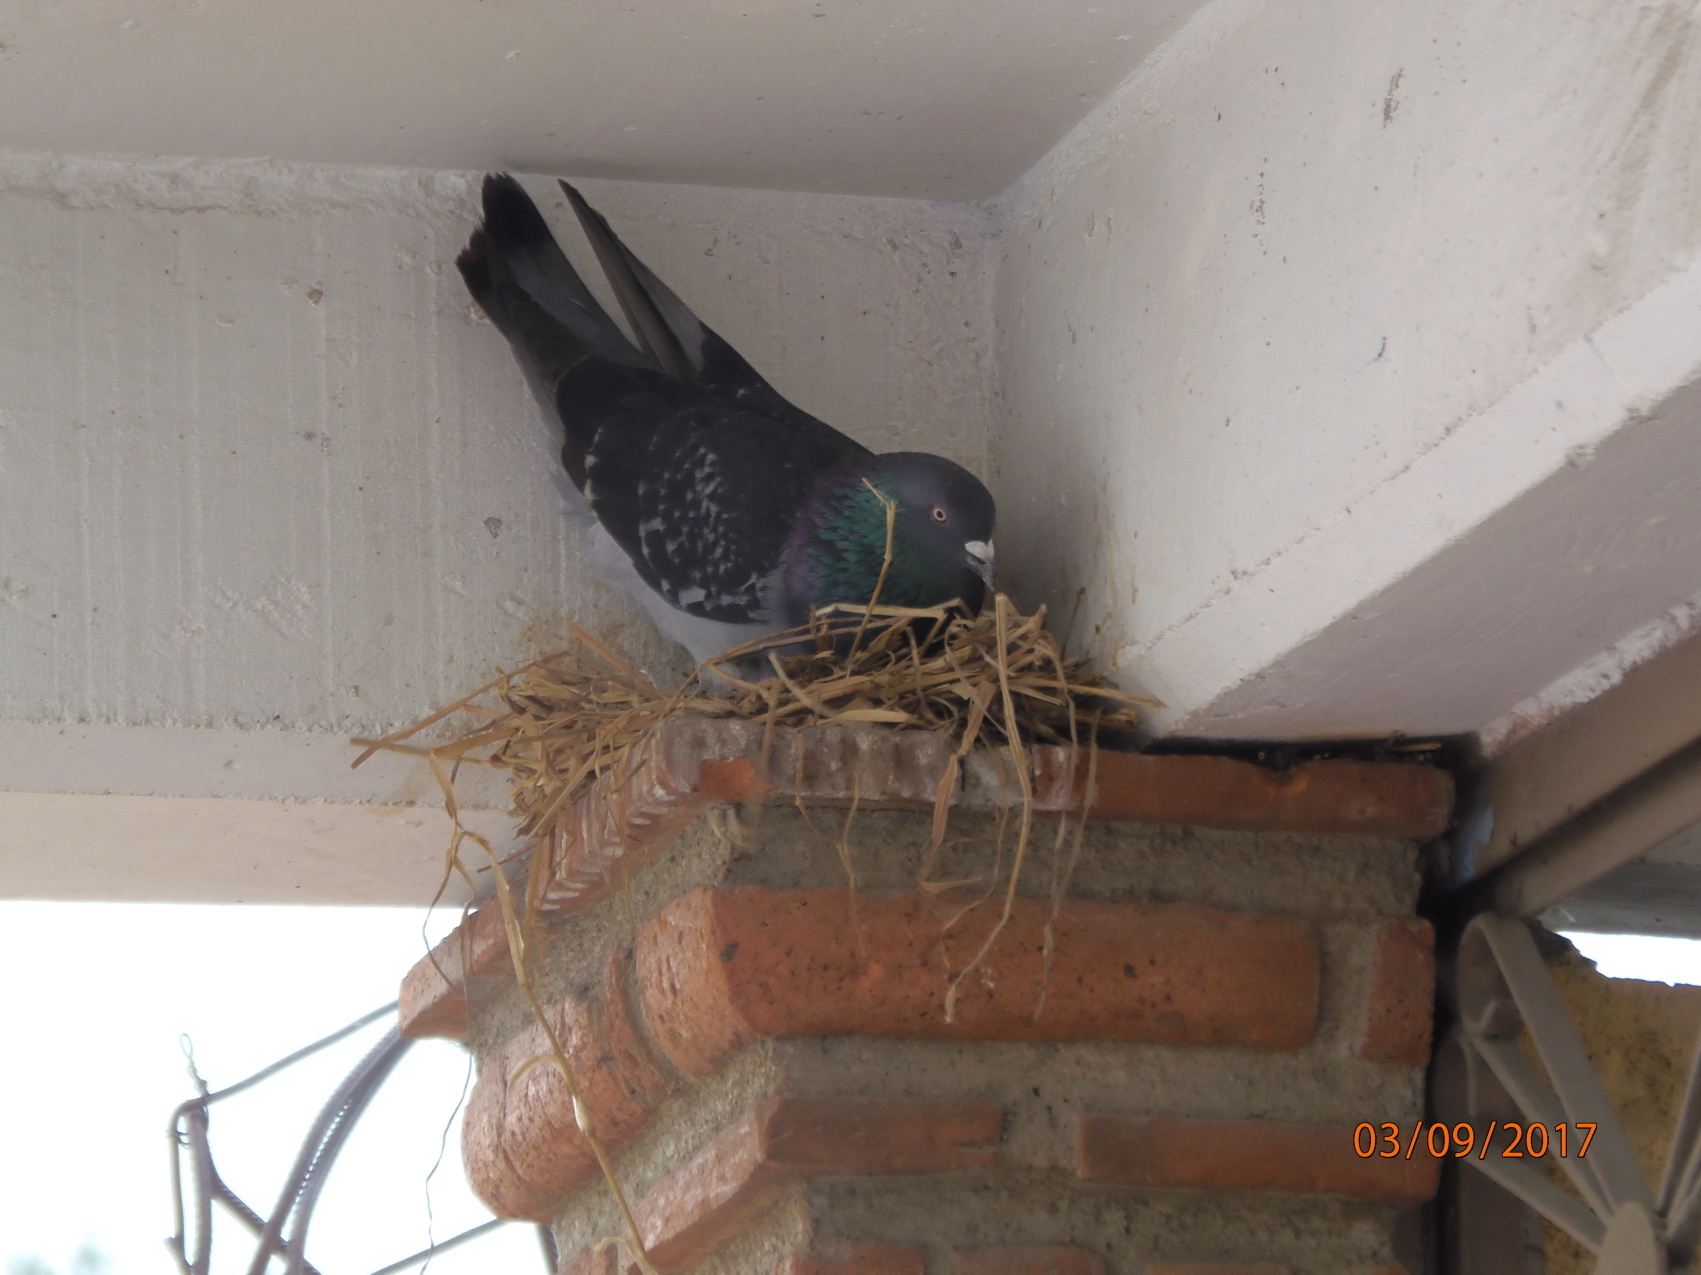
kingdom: Animalia
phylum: Chordata
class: Aves
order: Columbiformes
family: Columbidae
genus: Columba
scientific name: Columba livia
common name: Rock pigeon
